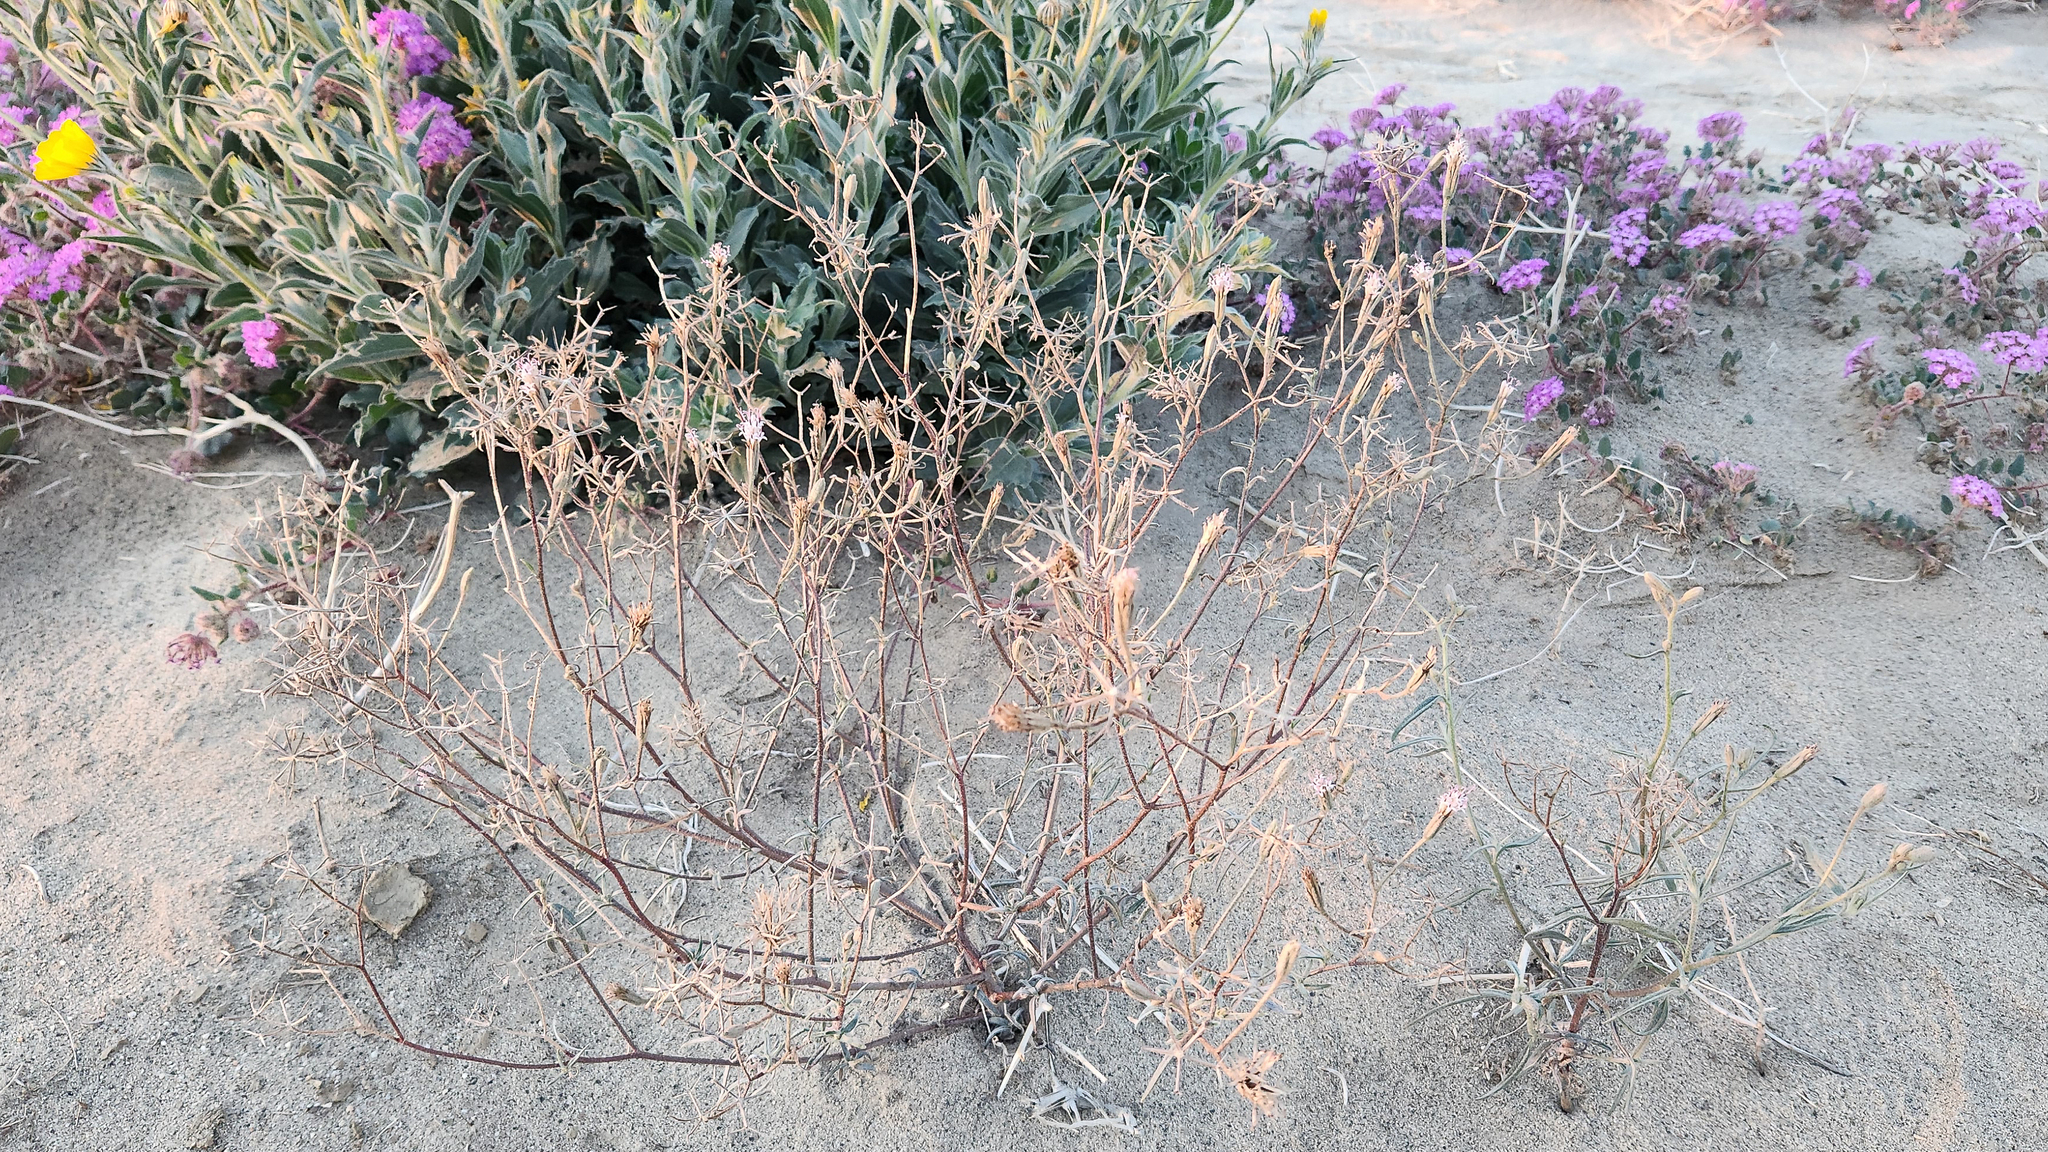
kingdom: Plantae
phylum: Tracheophyta
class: Magnoliopsida
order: Asterales
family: Asteraceae
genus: Palafoxia
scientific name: Palafoxia arida
